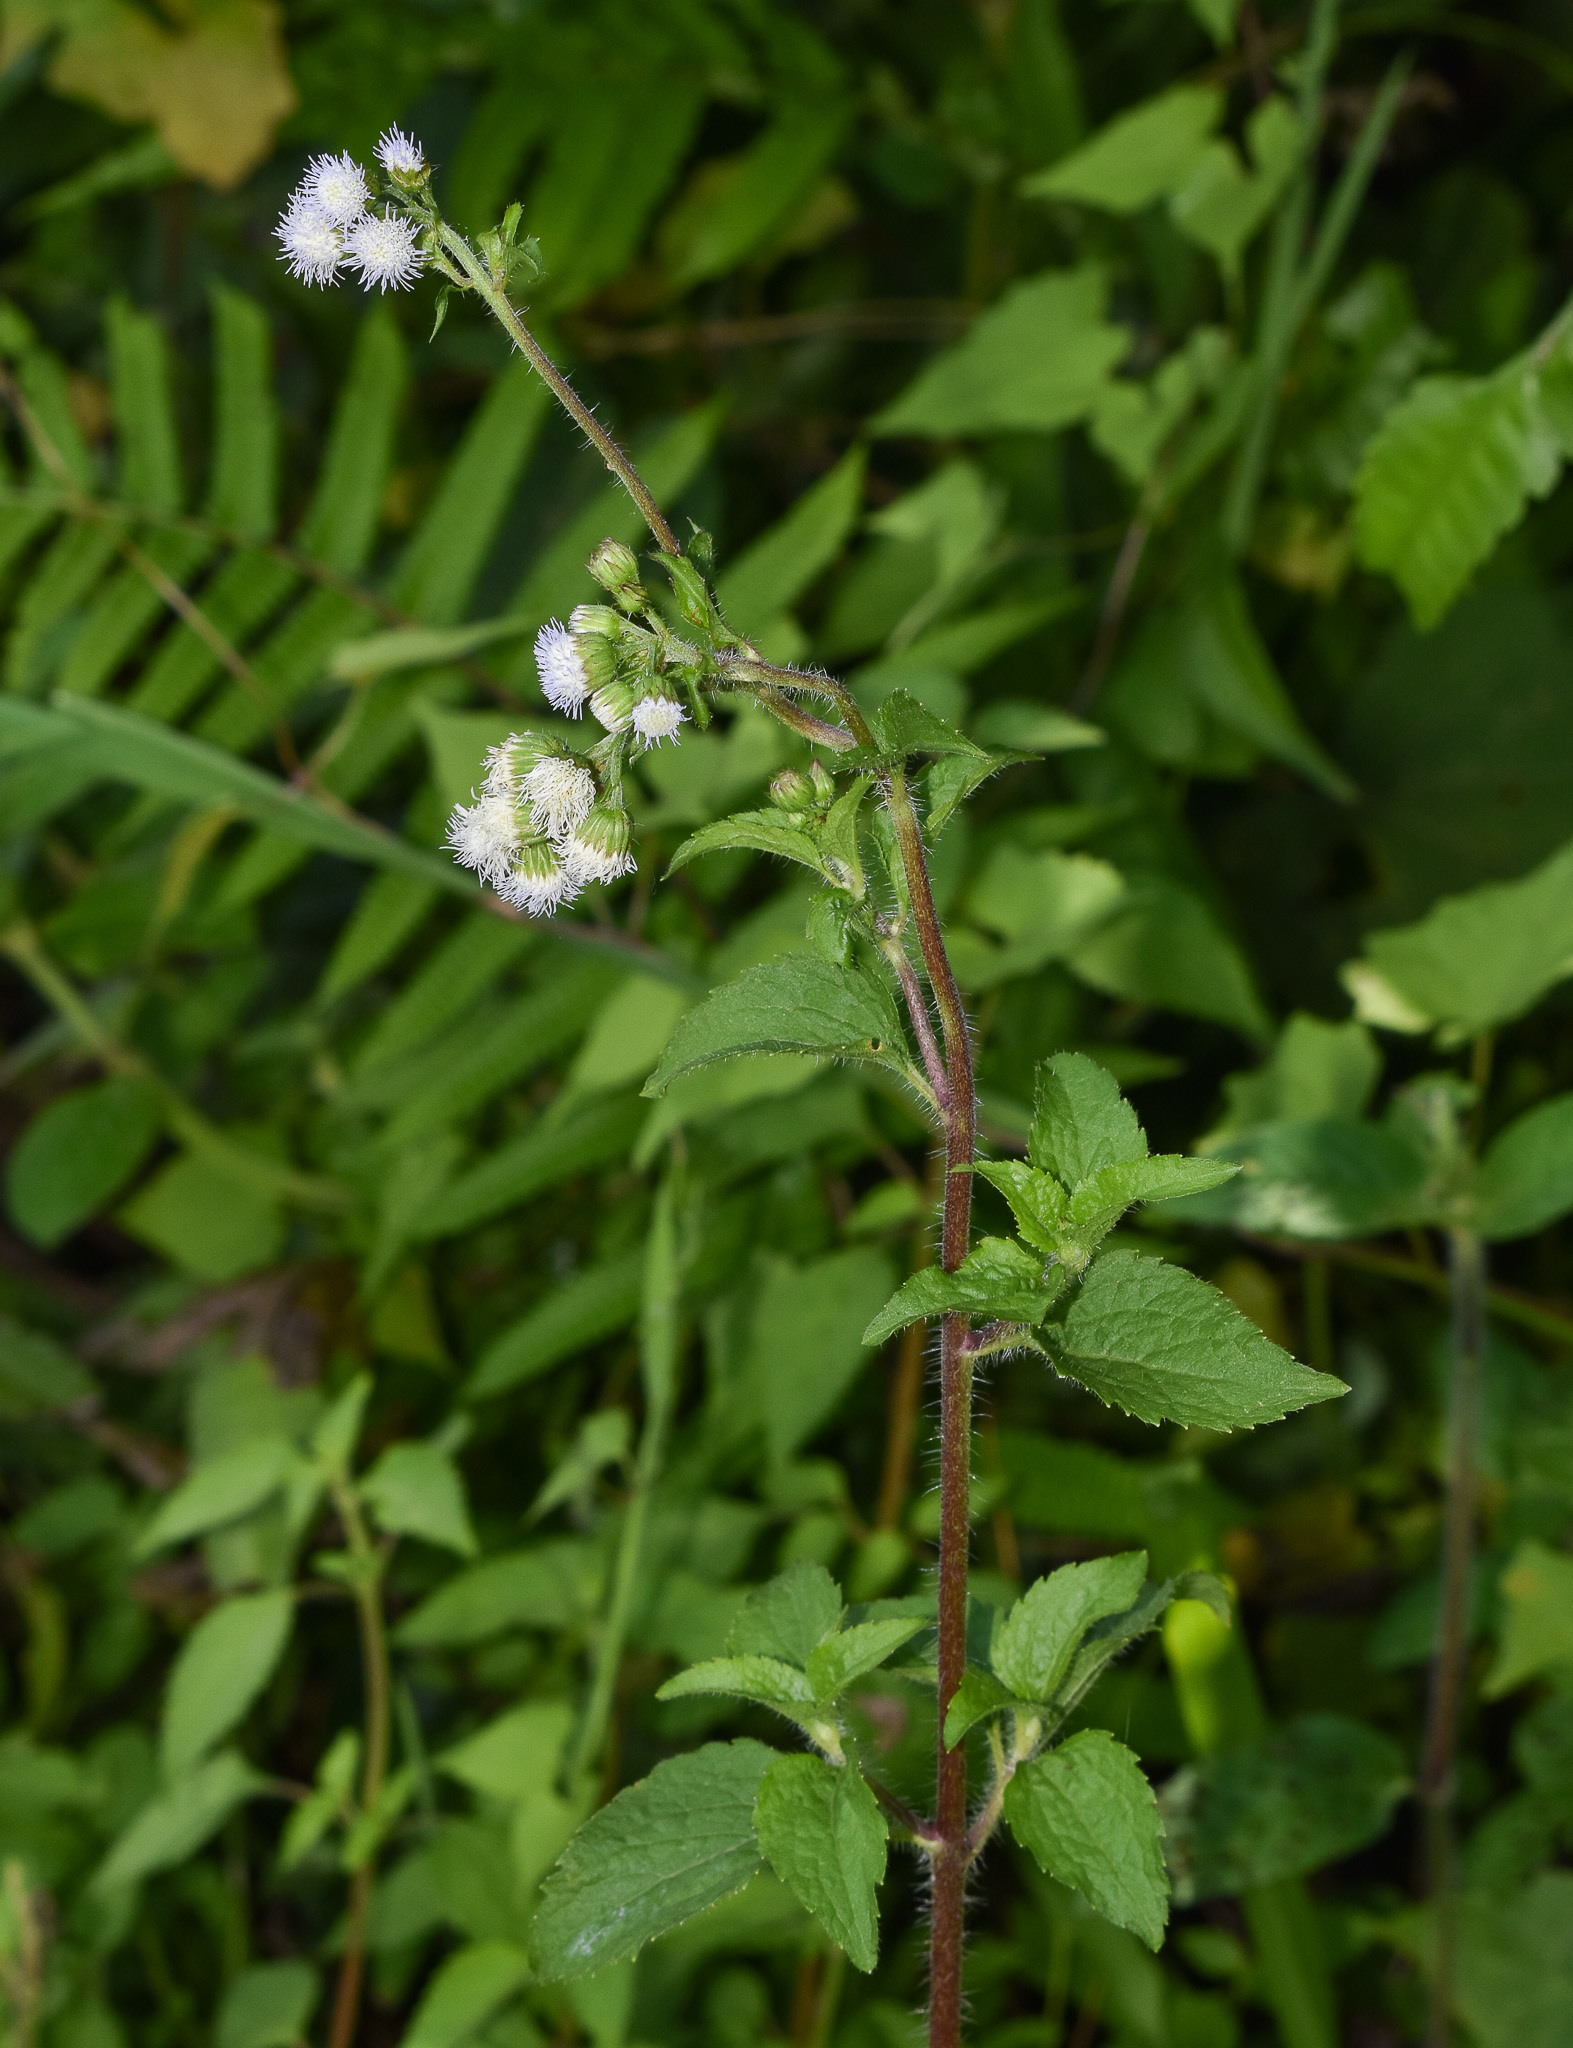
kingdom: Plantae
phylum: Tracheophyta
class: Magnoliopsida
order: Asterales
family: Asteraceae
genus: Ageratum
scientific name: Ageratum conyzoides
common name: Tropical whiteweed
